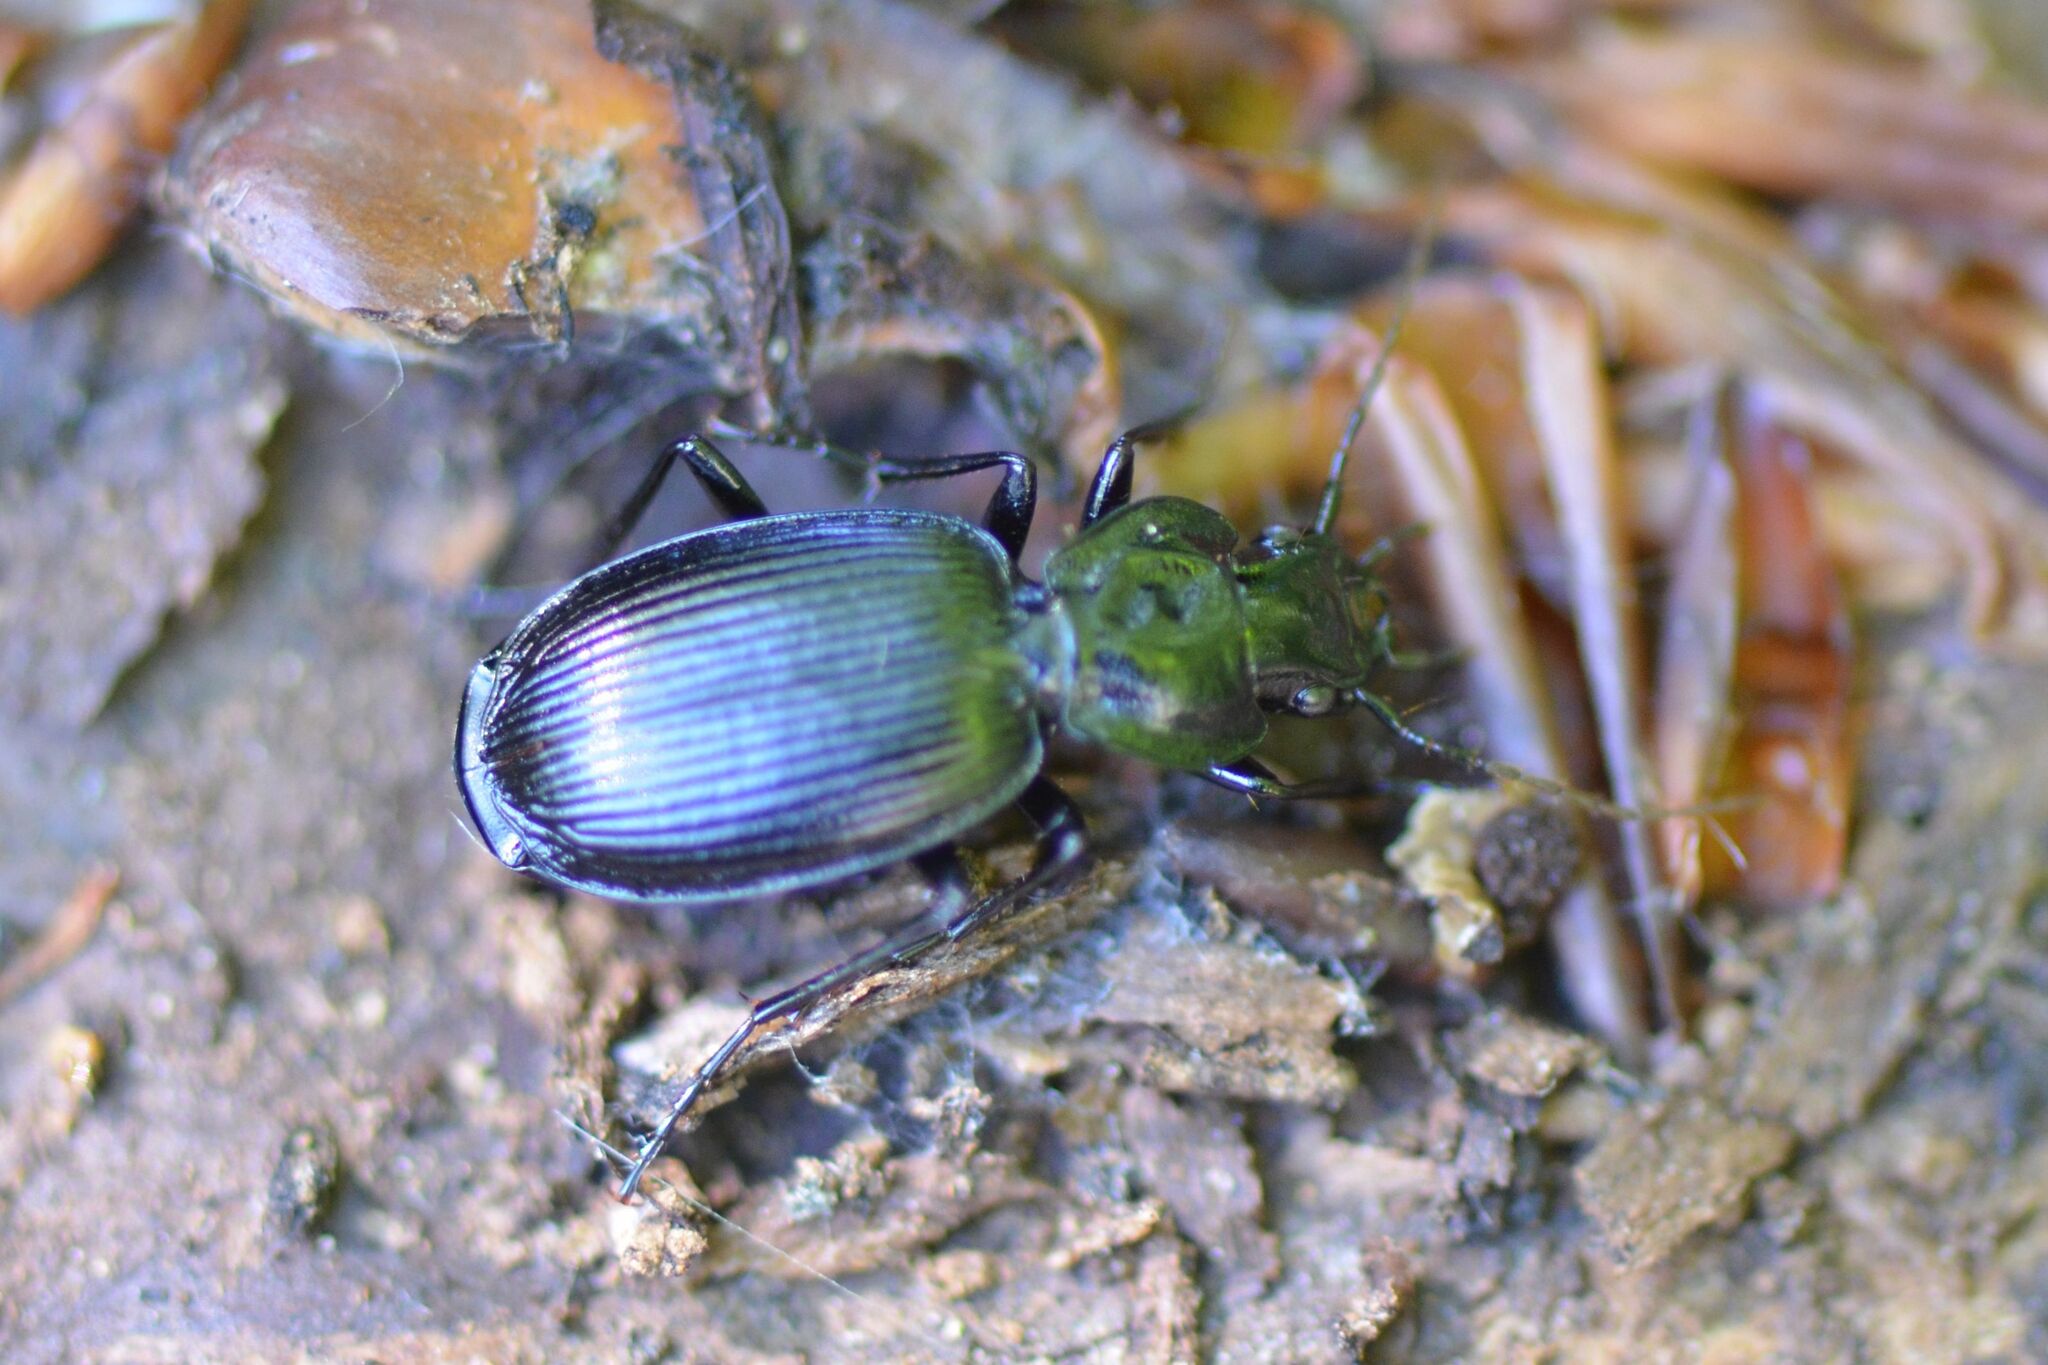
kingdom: Animalia
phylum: Arthropoda
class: Insecta
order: Coleoptera
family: Carabidae
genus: Licinus
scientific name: Licinus hoffmannseggii
